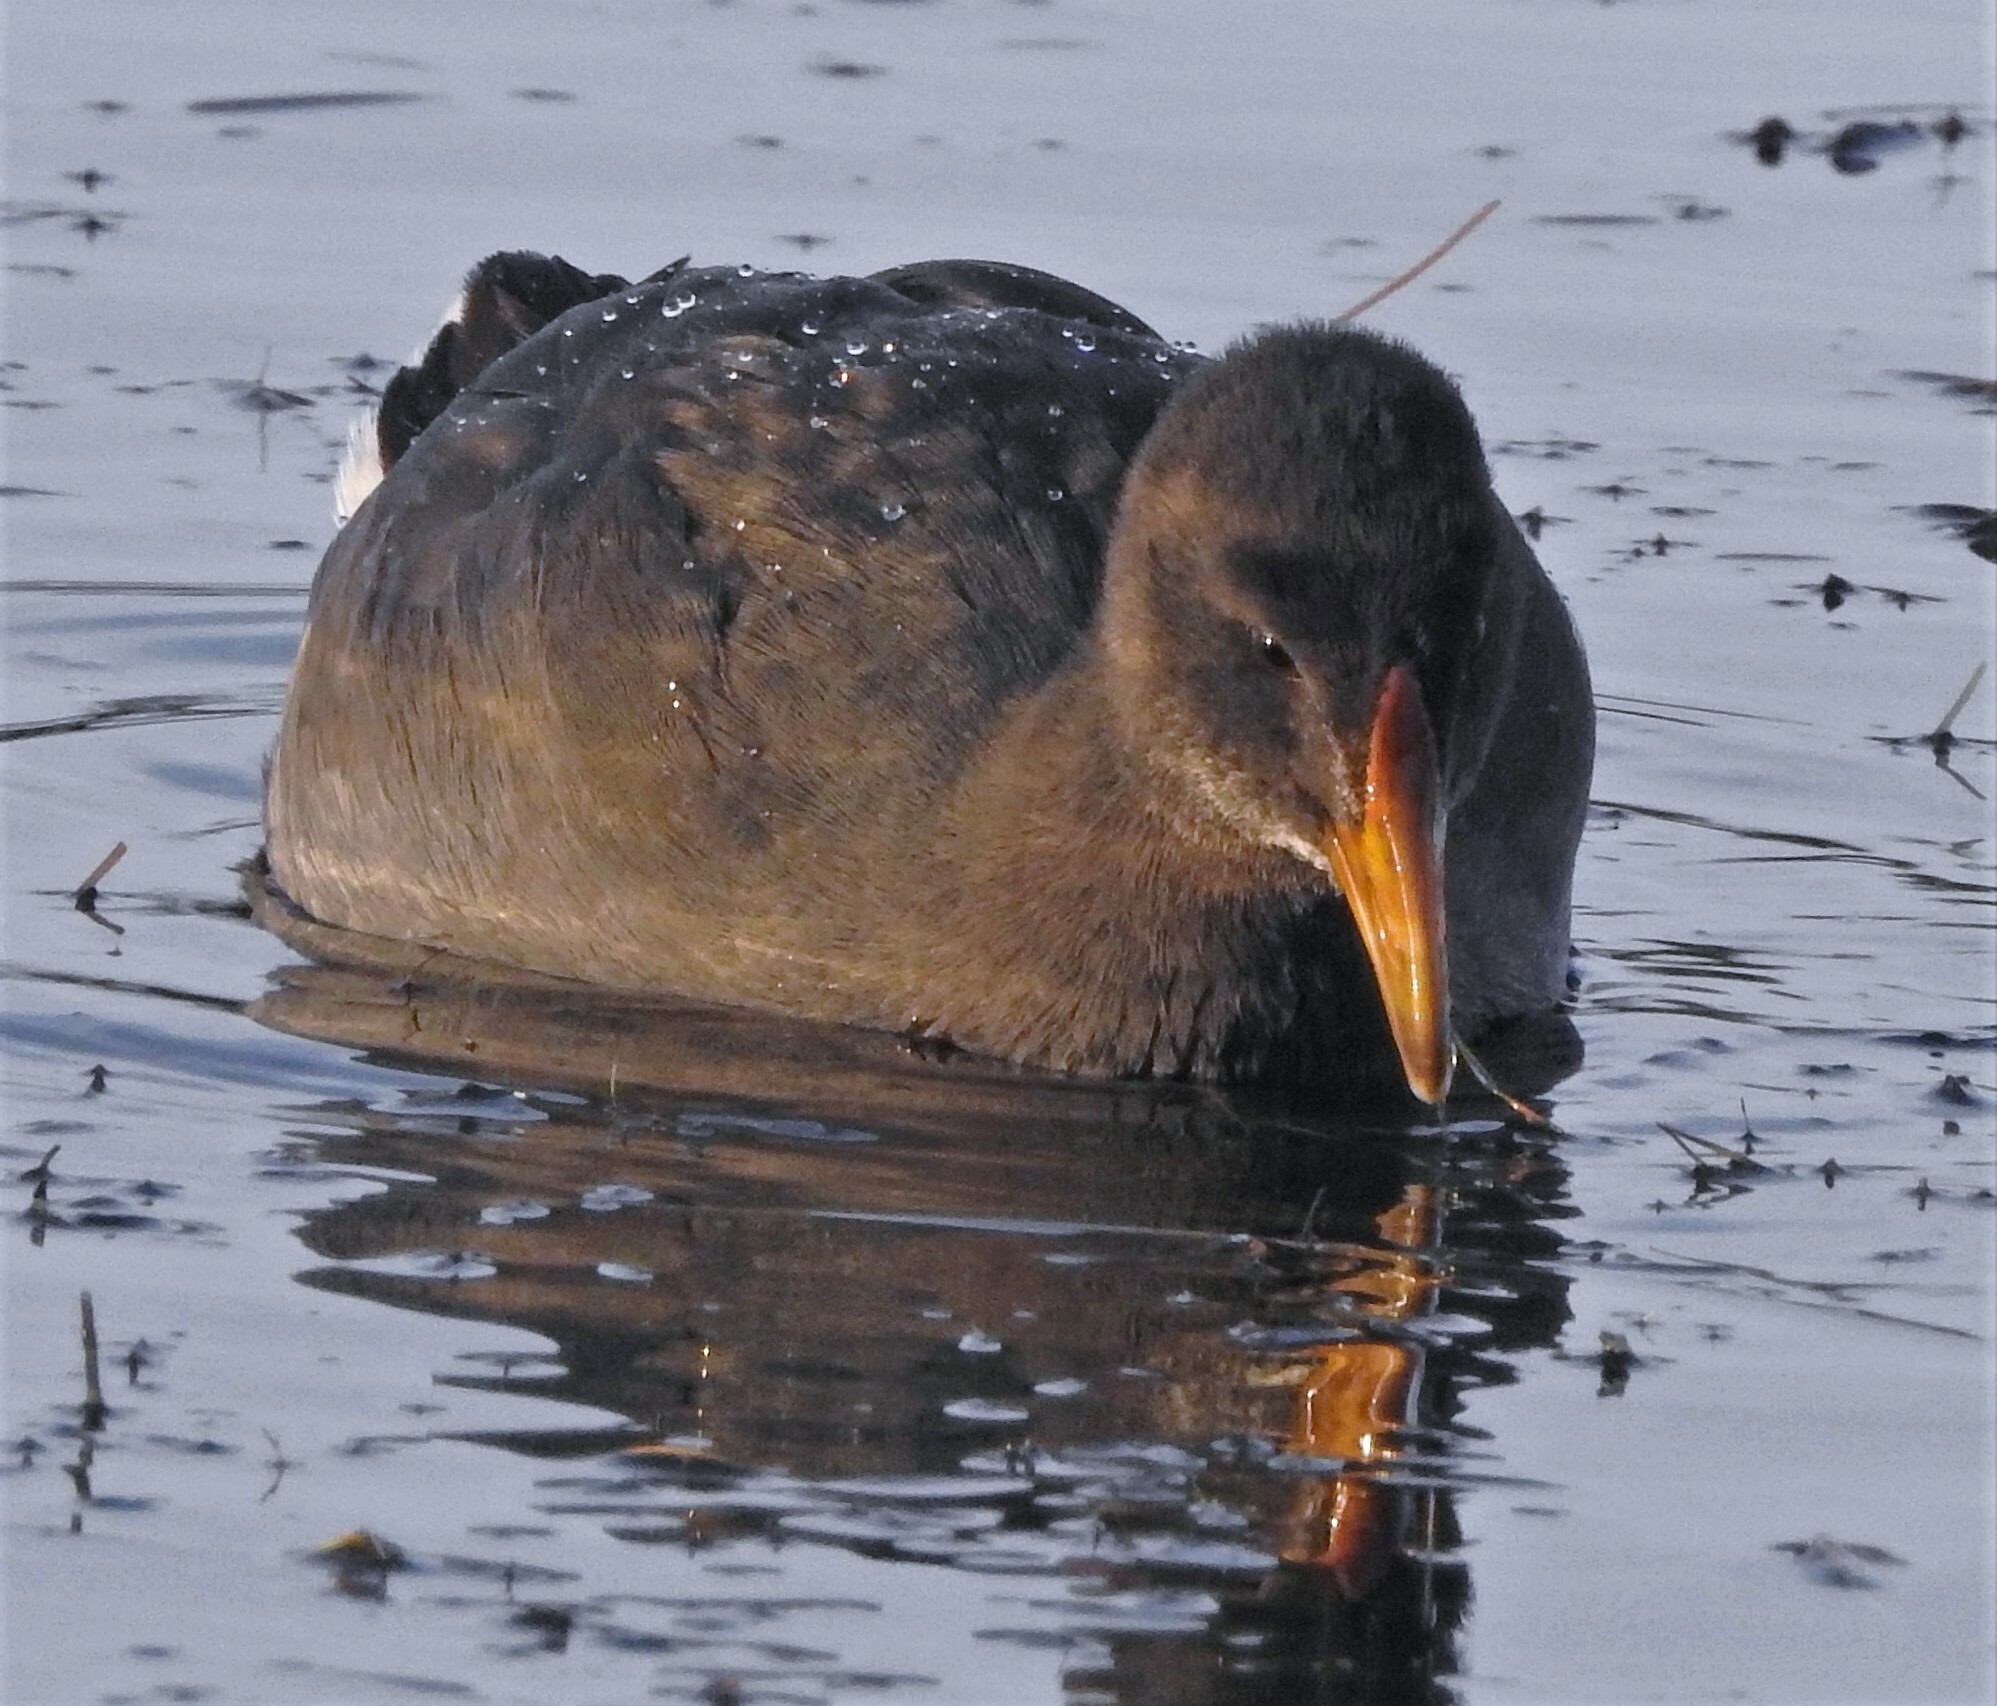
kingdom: Animalia
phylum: Chordata
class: Aves
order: Gruiformes
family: Rallidae
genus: Fulica
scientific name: Fulica rufifrons
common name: Red-fronted coot
